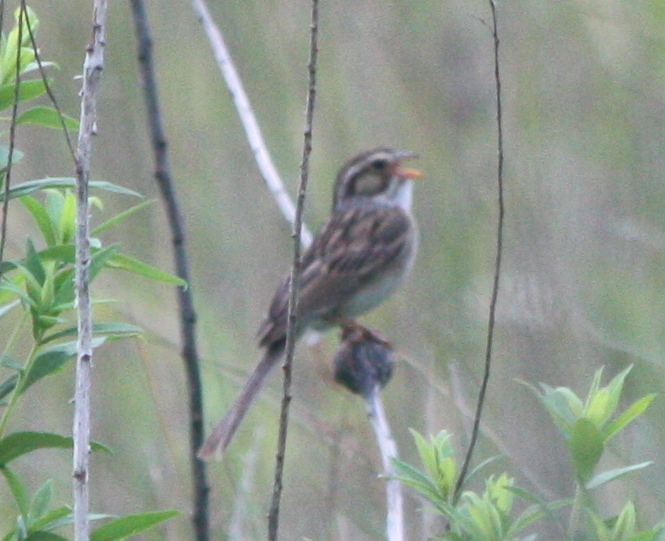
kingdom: Animalia
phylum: Chordata
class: Aves
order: Passeriformes
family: Passerellidae
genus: Spizella
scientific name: Spizella pallida
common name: Clay-colored sparrow
